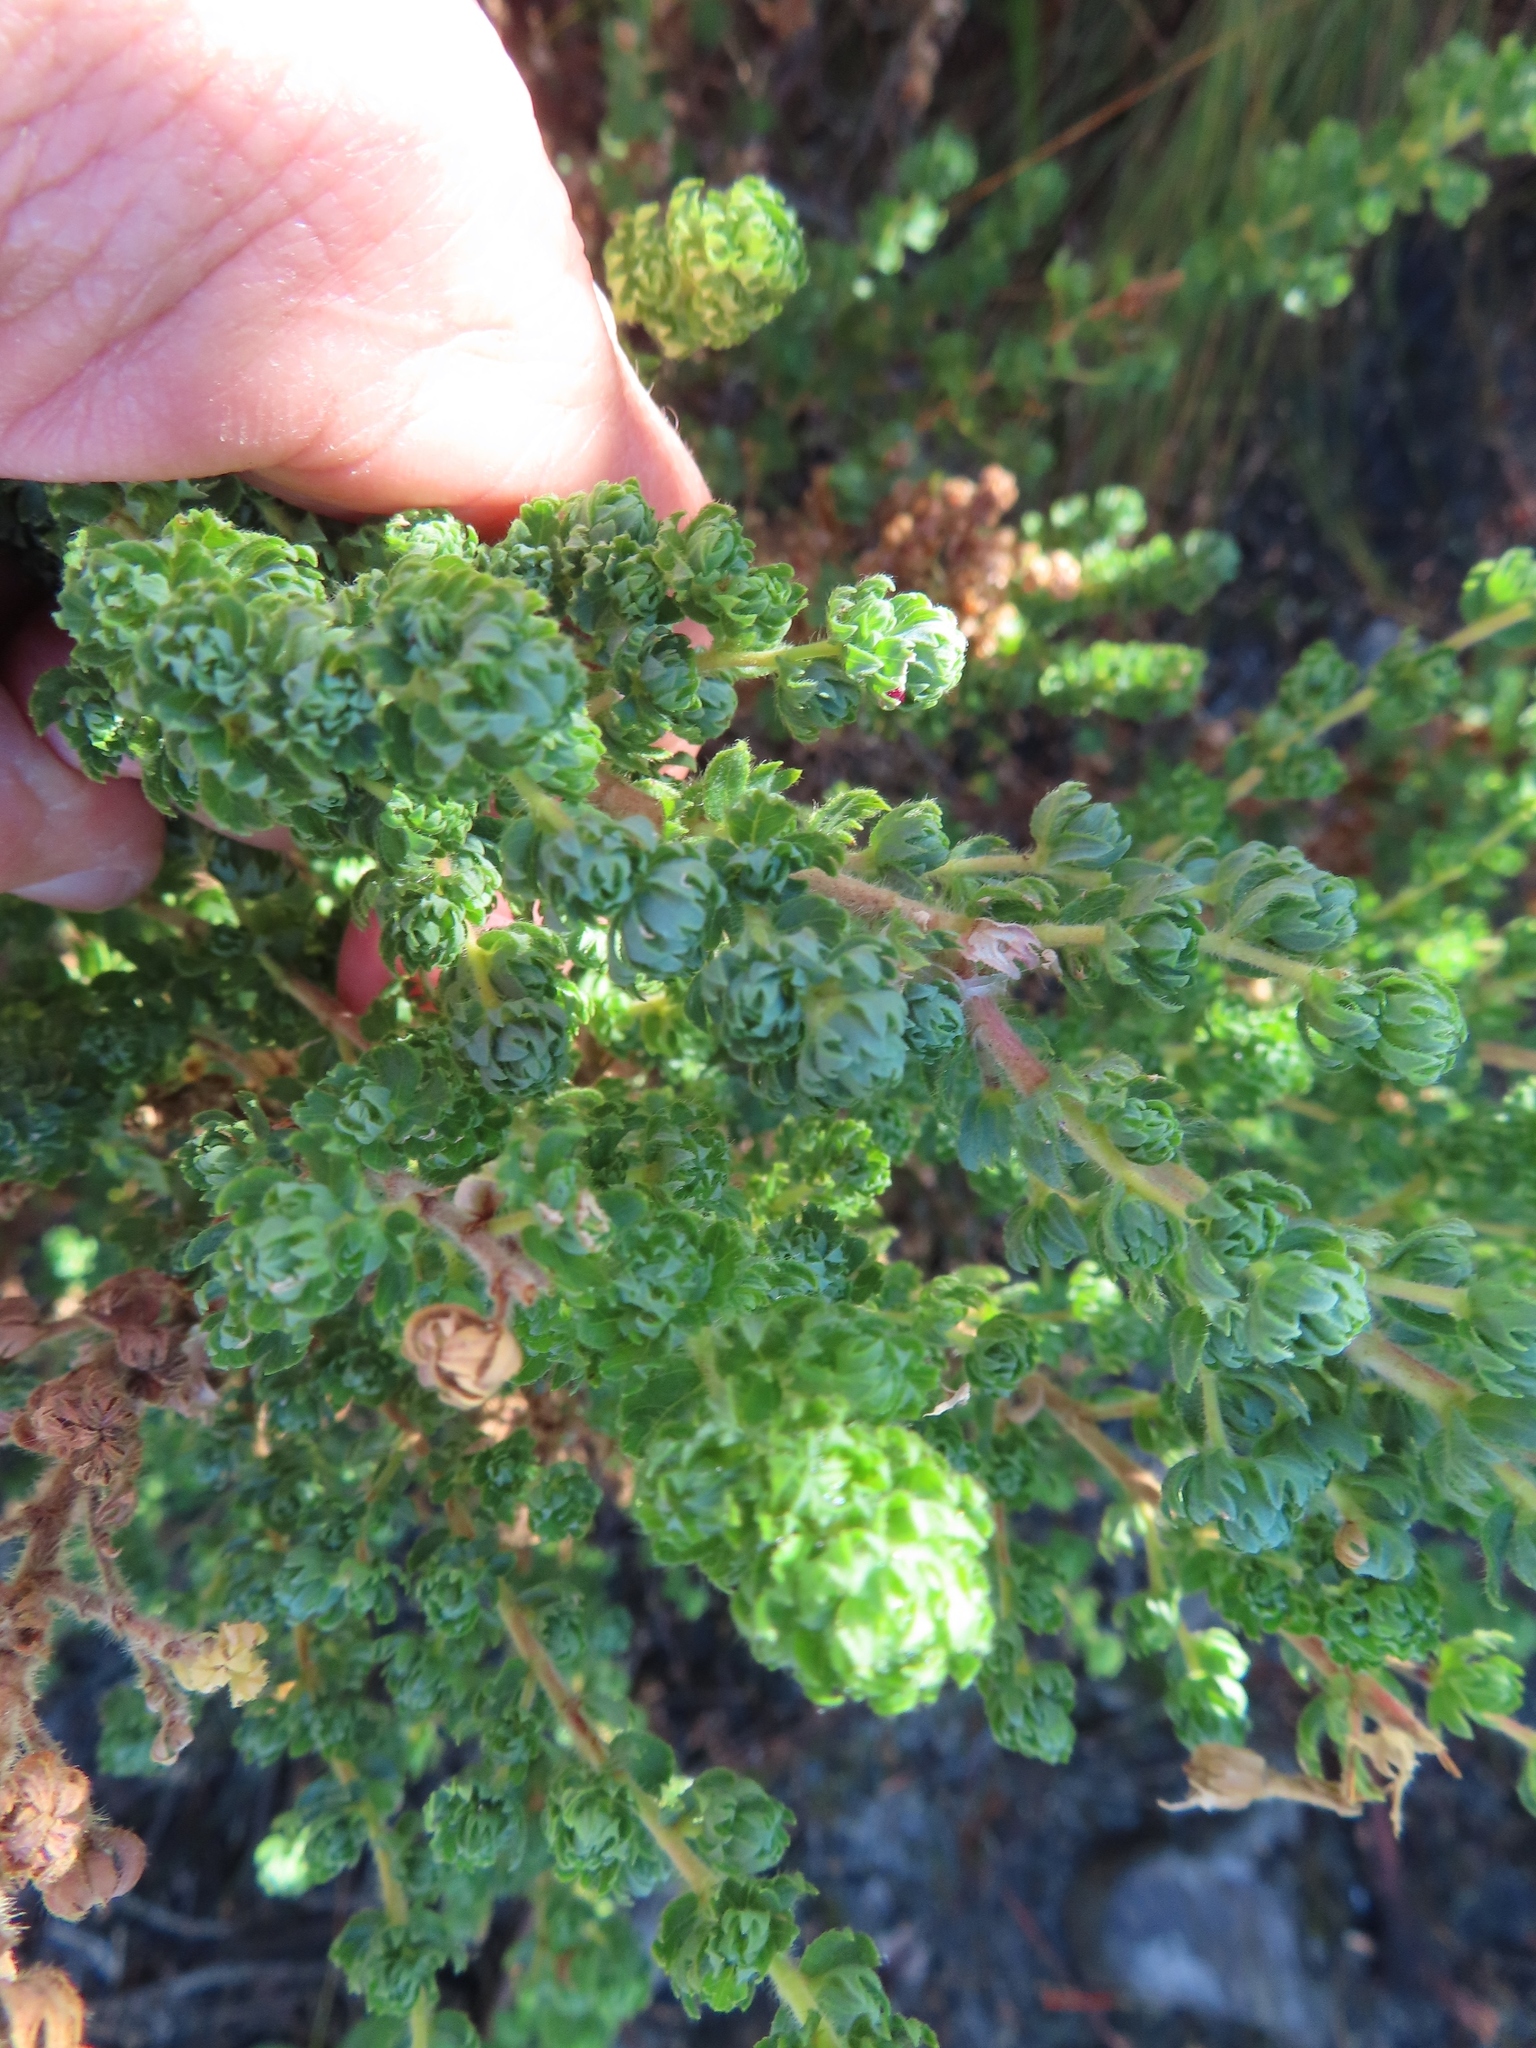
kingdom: Plantae
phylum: Tracheophyta
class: Magnoliopsida
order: Rosales
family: Rosaceae
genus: Cliffortia
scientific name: Cliffortia polygonifolia
